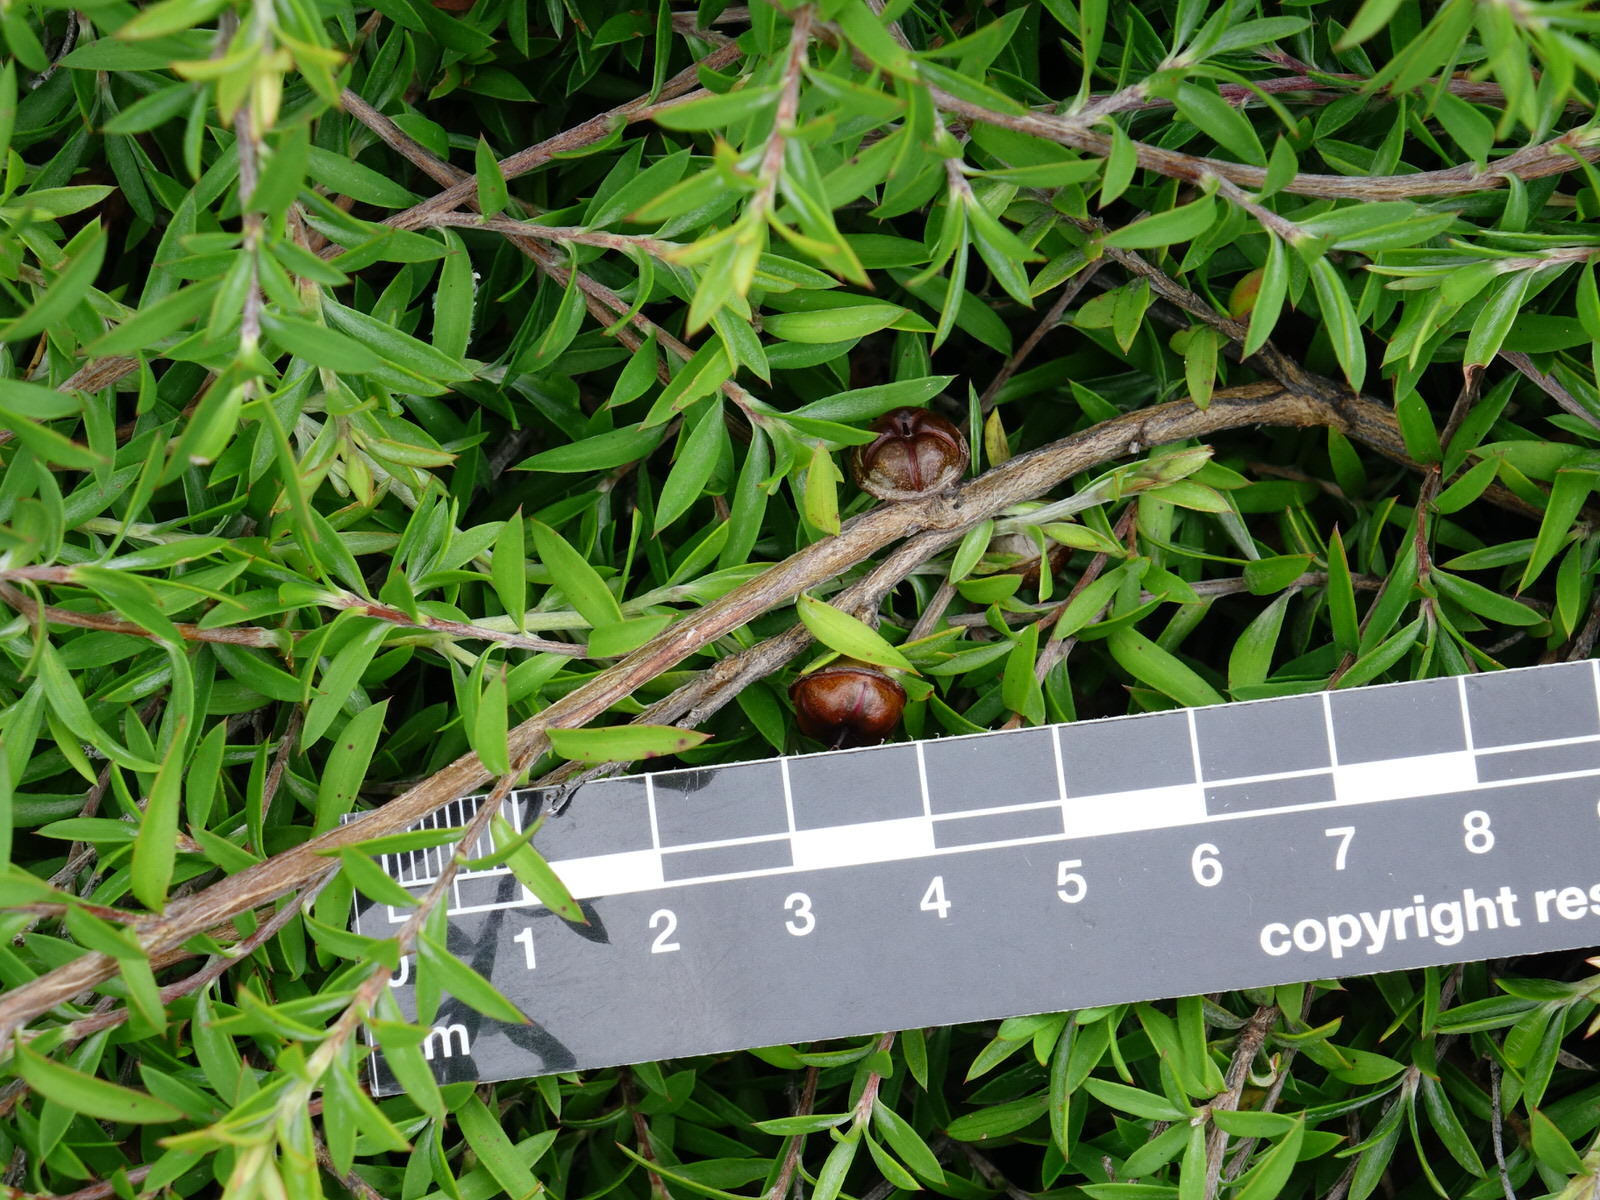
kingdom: Plantae
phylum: Tracheophyta
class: Magnoliopsida
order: Myrtales
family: Myrtaceae
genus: Leptospermum
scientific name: Leptospermum scoparium
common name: Broom tea-tree
